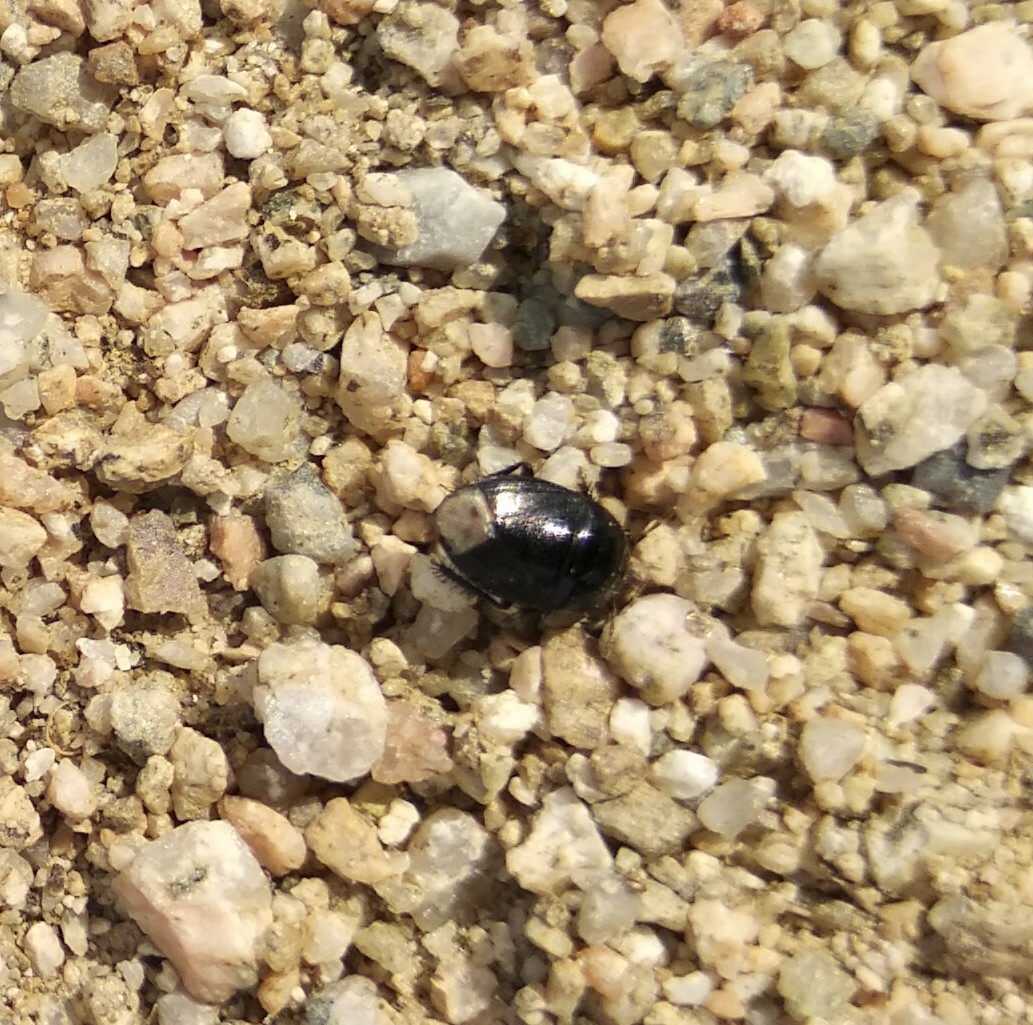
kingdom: Animalia
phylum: Arthropoda
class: Insecta
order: Hemiptera
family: Cydnidae
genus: Macroscytus
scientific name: Macroscytus brunneus
